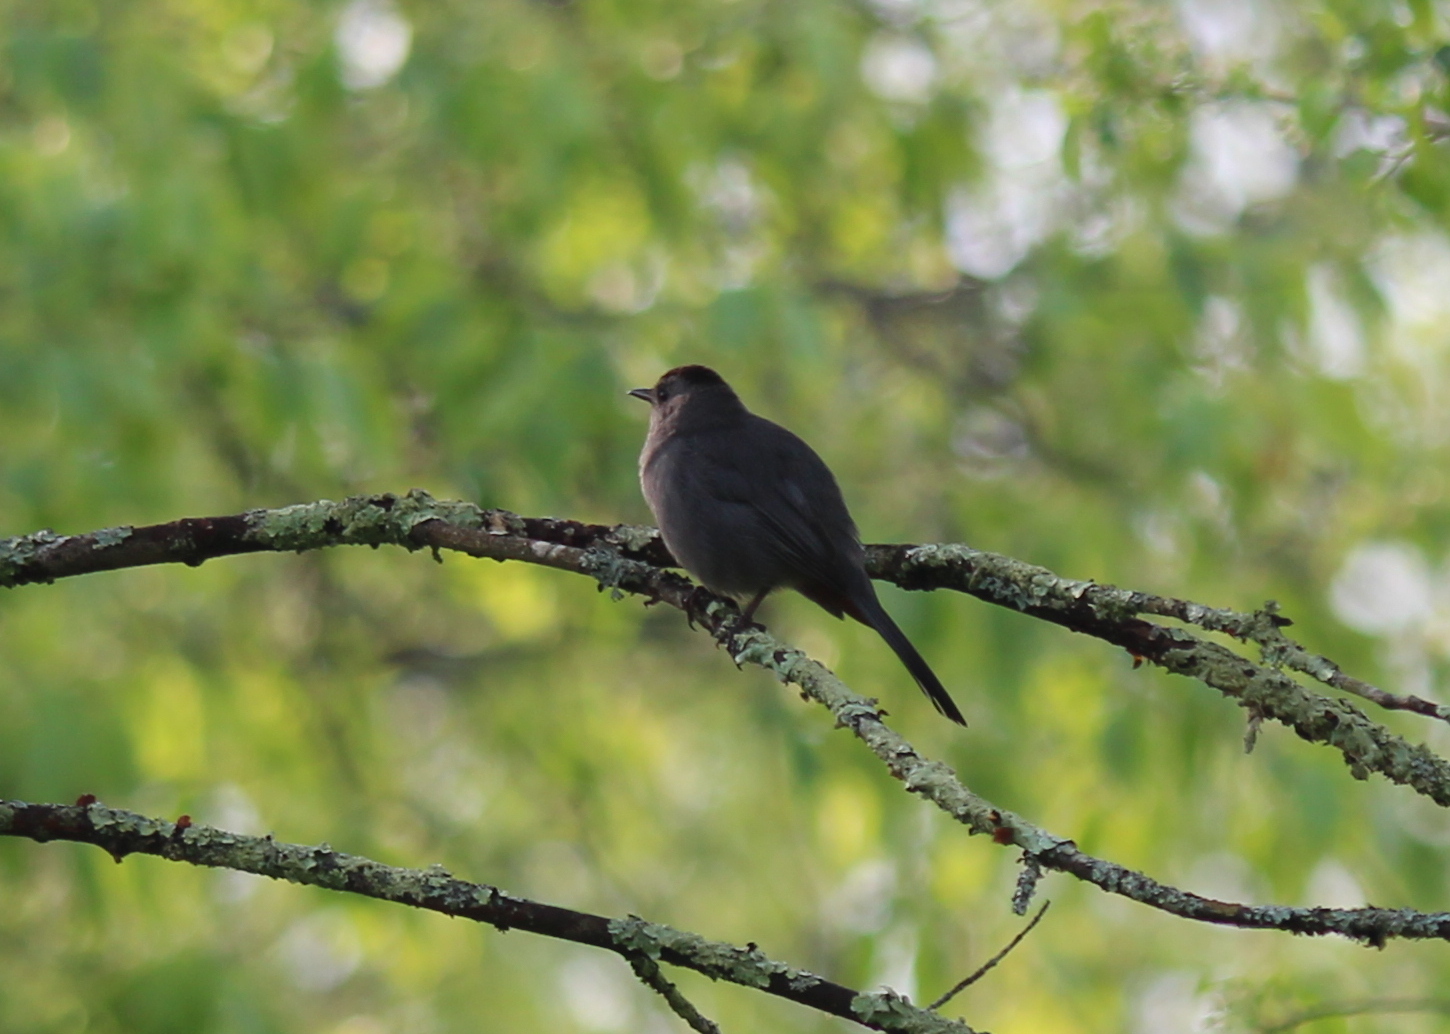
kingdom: Animalia
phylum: Chordata
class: Aves
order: Passeriformes
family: Mimidae
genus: Dumetella
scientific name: Dumetella carolinensis
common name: Gray catbird
